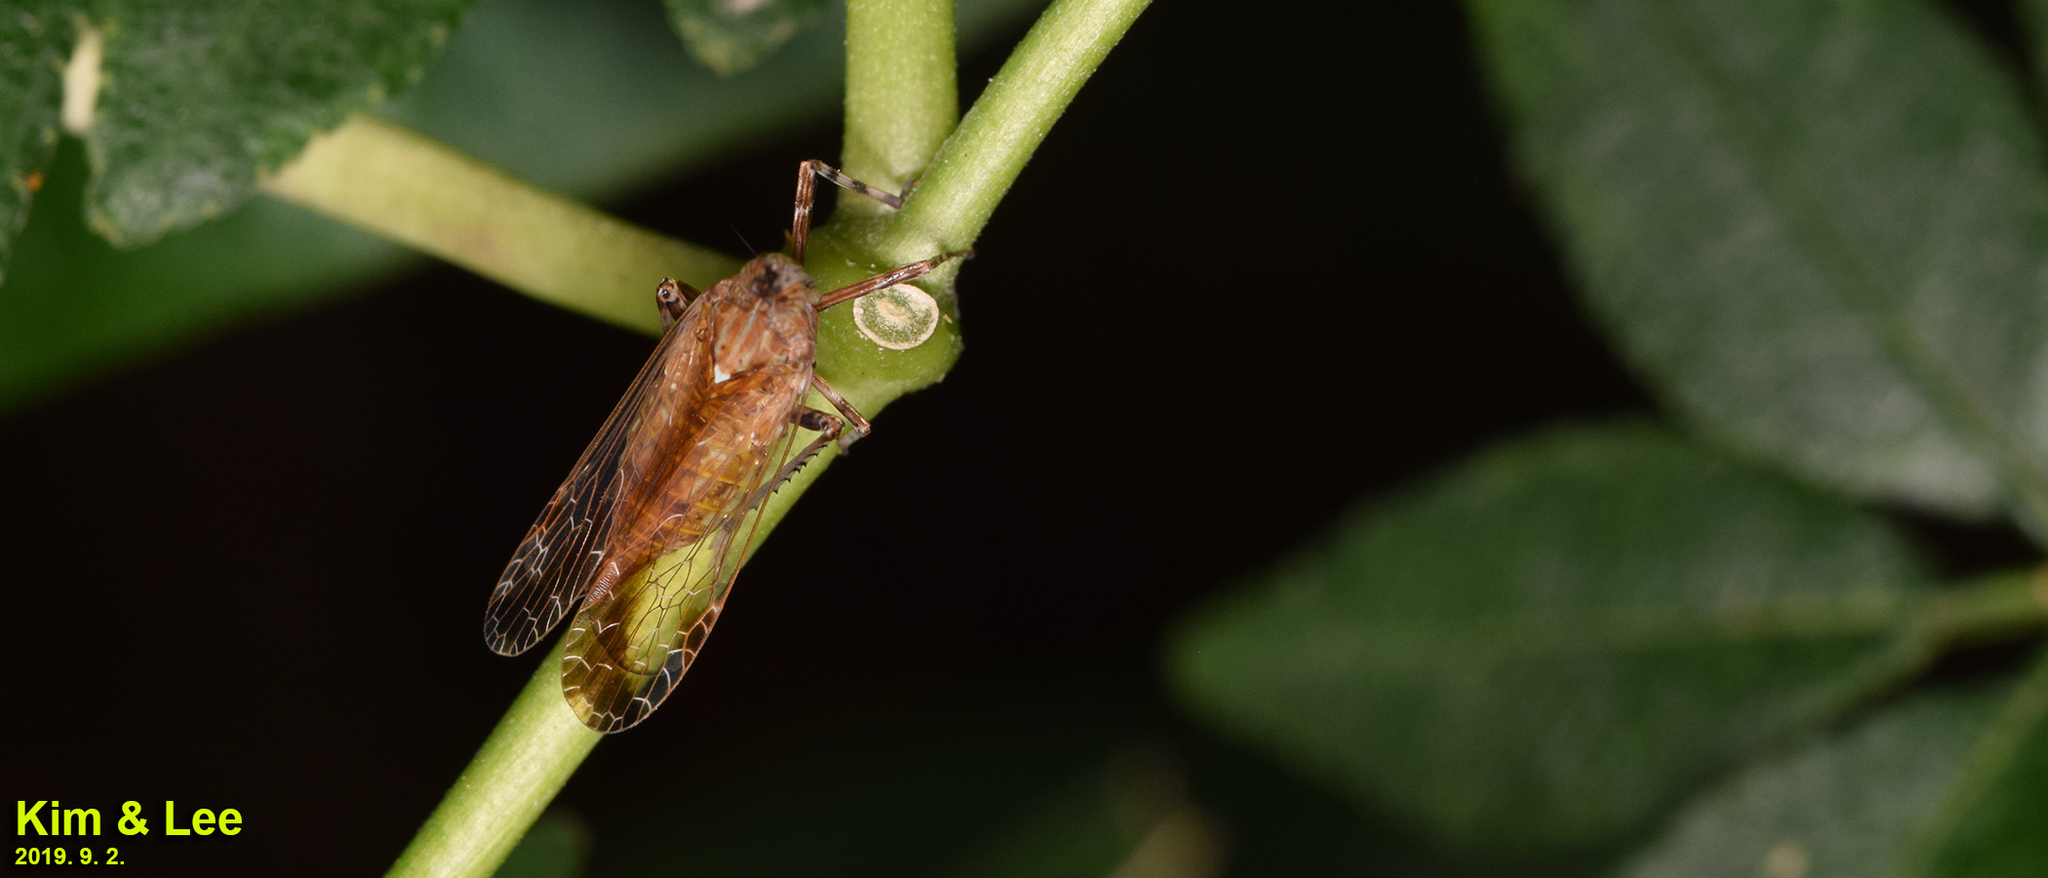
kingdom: Animalia
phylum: Arthropoda
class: Insecta
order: Hemiptera
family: Dictyopharidae
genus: Orthopagus
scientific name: Orthopagus lunulifer
